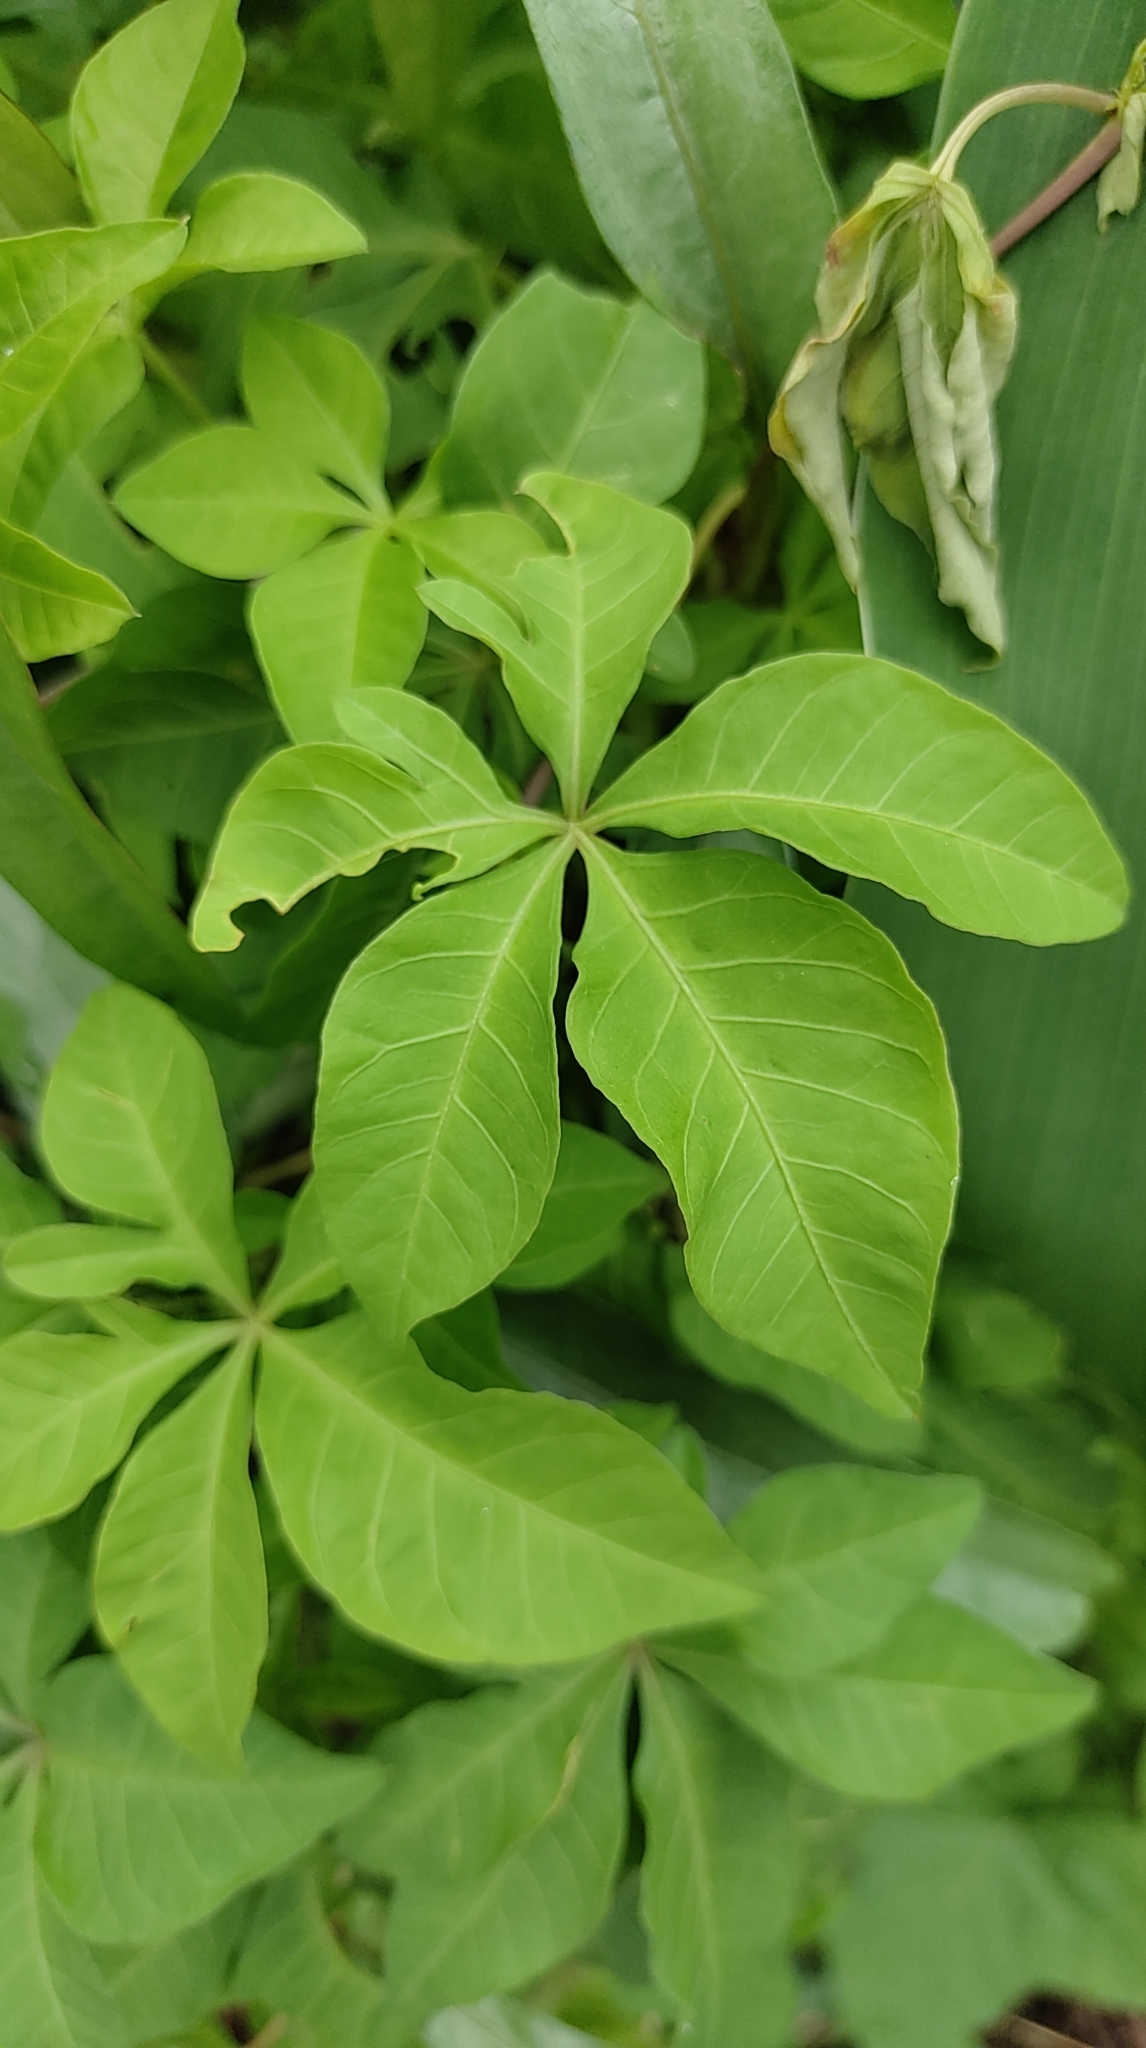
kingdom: Plantae
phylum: Tracheophyta
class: Magnoliopsida
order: Solanales
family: Convolvulaceae
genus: Ipomoea
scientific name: Ipomoea cairica
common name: Mile a minute vine
